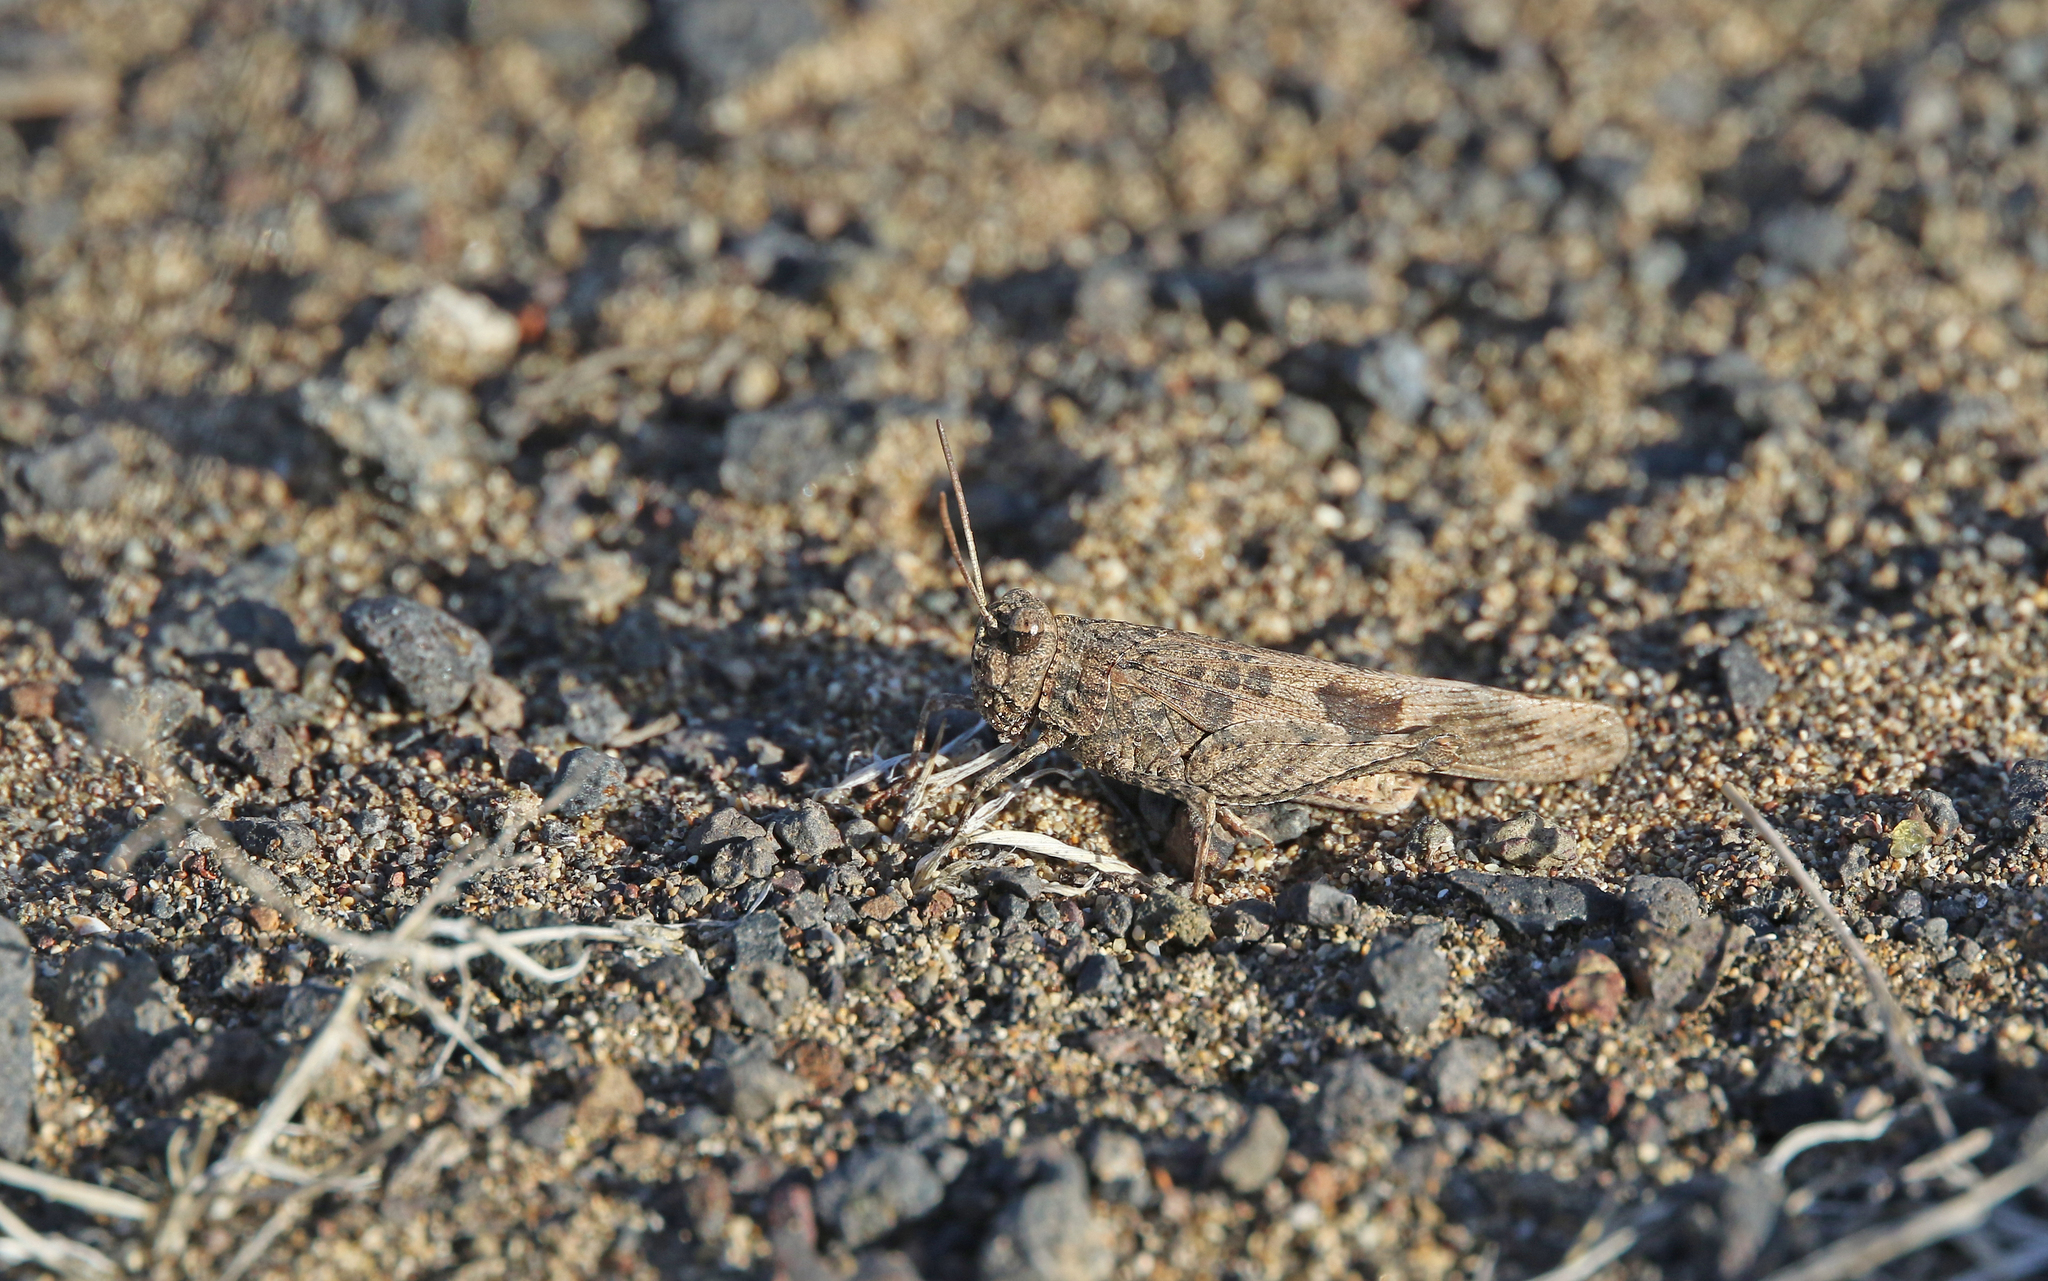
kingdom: Animalia
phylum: Arthropoda
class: Insecta
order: Orthoptera
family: Acrididae
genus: Oedipoda
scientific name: Oedipoda canariensis
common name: Canarian band-winged grasshopper
